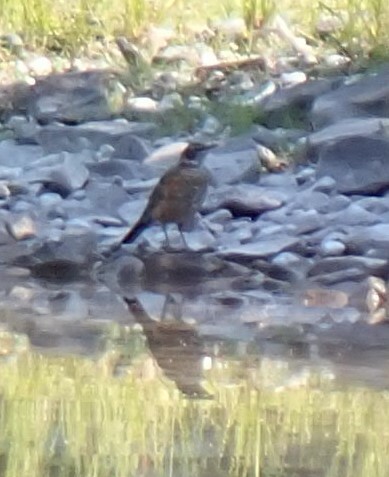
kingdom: Animalia
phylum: Chordata
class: Aves
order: Passeriformes
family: Turdidae
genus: Turdus
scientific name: Turdus migratorius
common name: American robin
